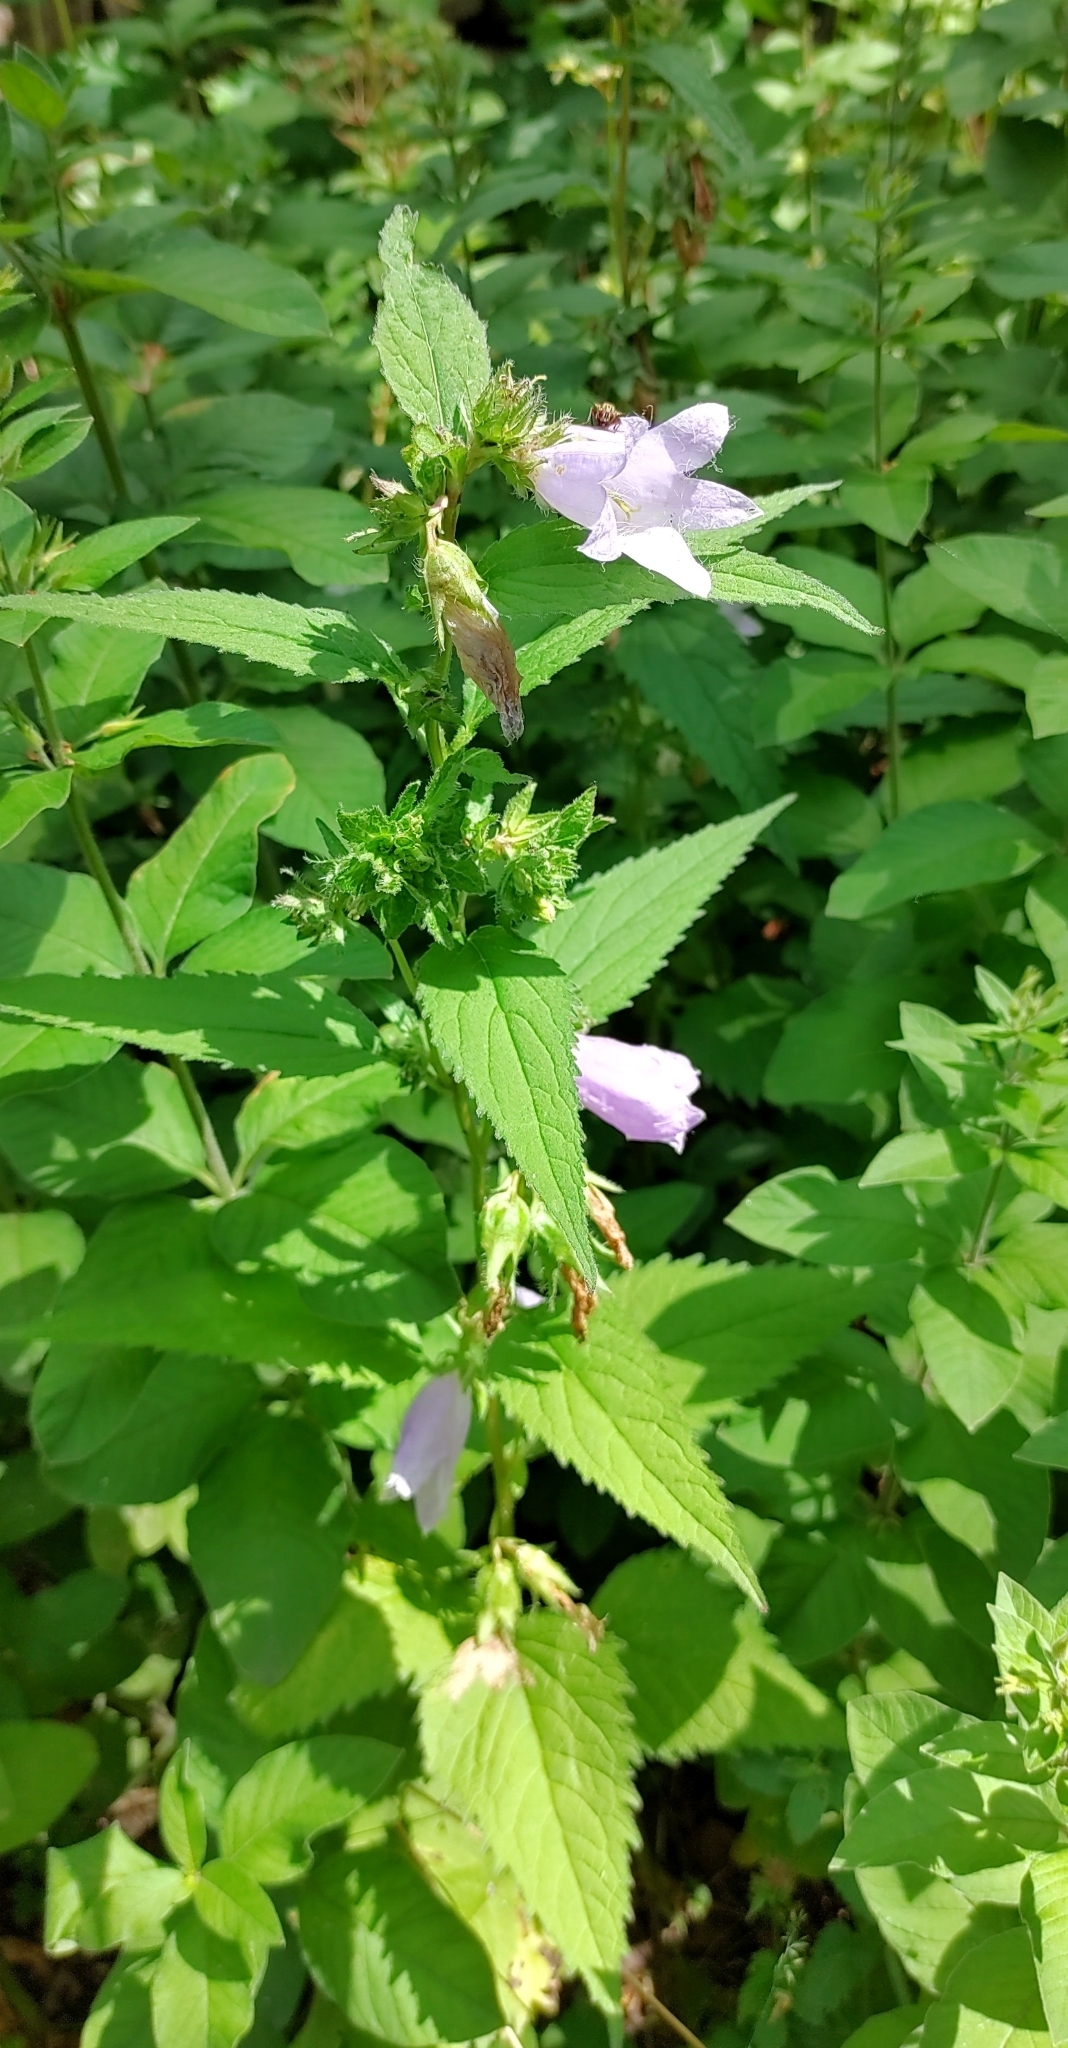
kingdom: Plantae
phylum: Tracheophyta
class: Magnoliopsida
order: Asterales
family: Campanulaceae
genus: Campanula
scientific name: Campanula trachelium
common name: Nettle-leaved bellflower
